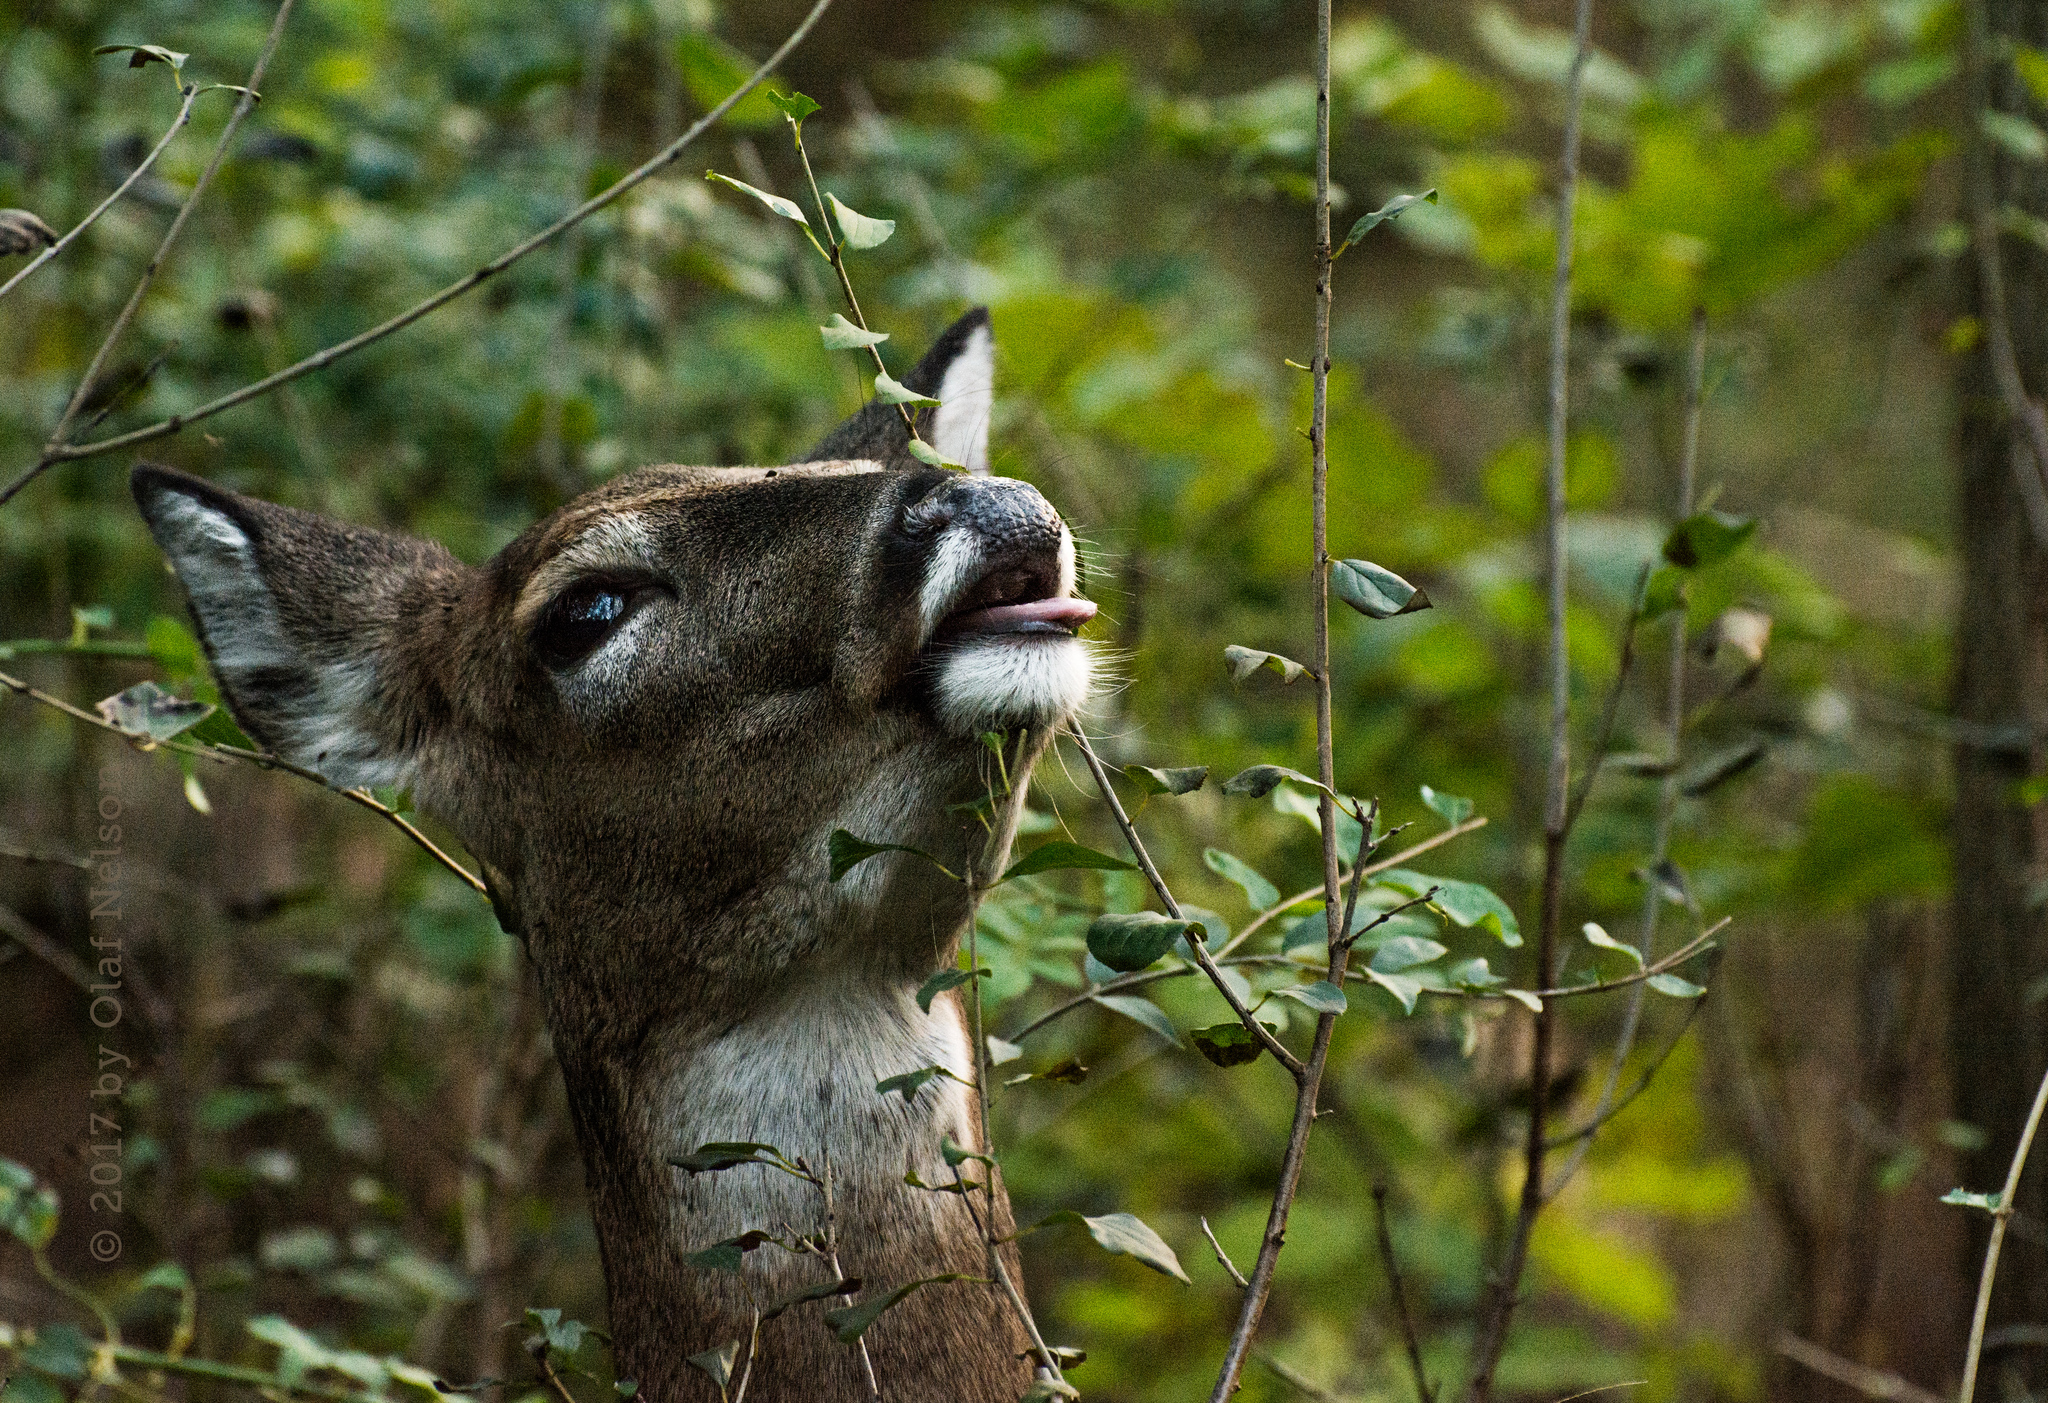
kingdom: Animalia
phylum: Chordata
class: Mammalia
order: Artiodactyla
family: Cervidae
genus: Odocoileus
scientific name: Odocoileus virginianus
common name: White-tailed deer
